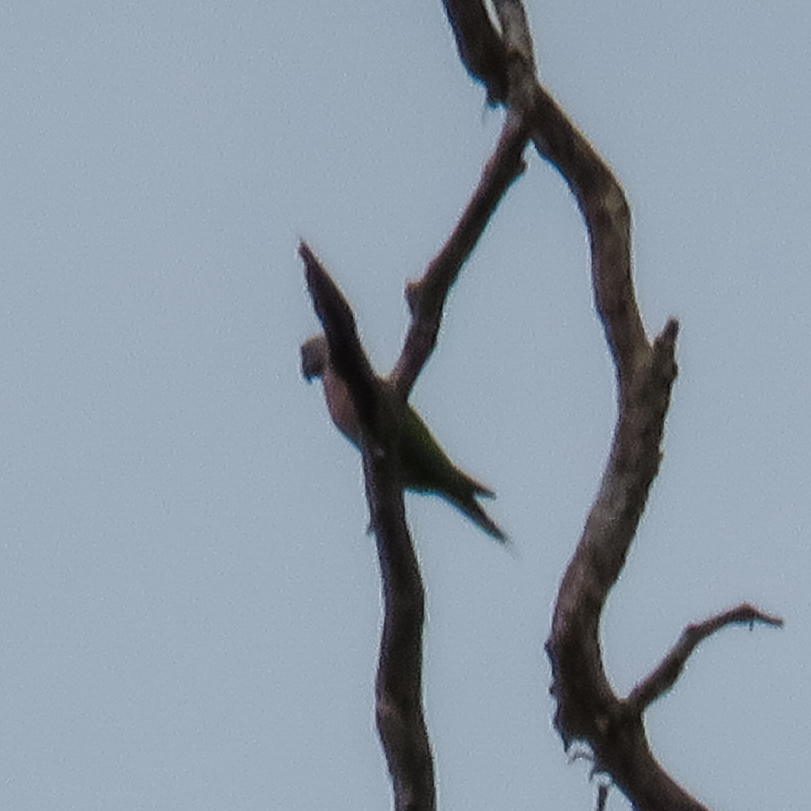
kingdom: Animalia
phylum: Chordata
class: Aves
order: Psittaciformes
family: Psittacidae
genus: Psittacula
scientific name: Psittacula alexandri
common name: Red-breasted parakeet
